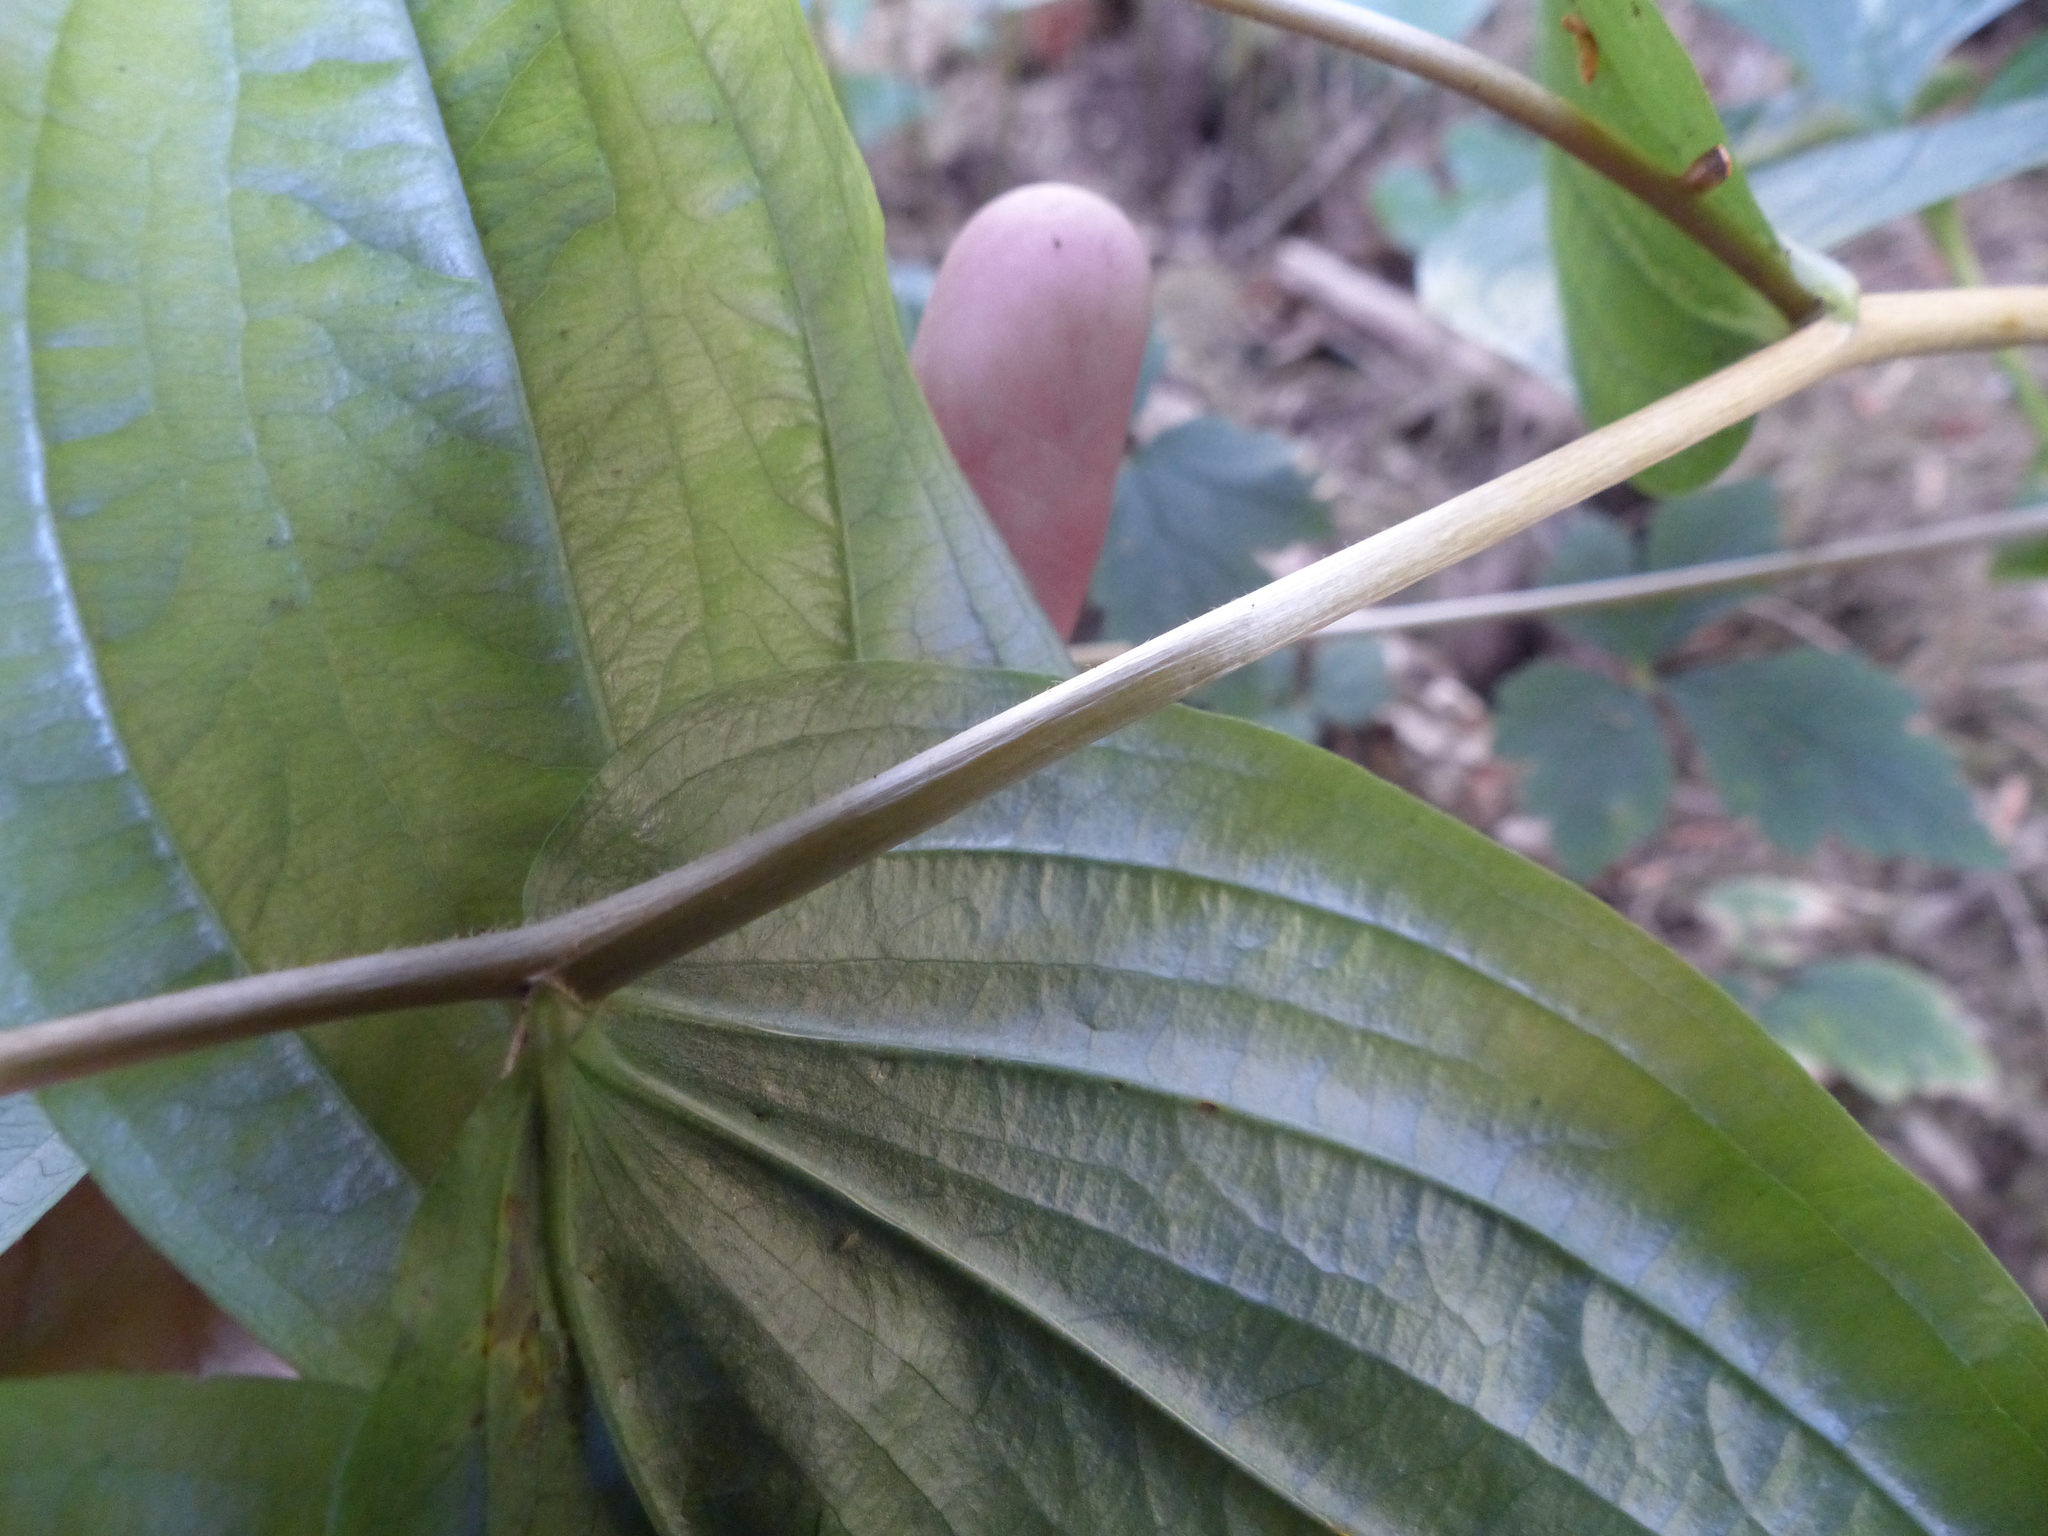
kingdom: Plantae
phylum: Tracheophyta
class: Liliopsida
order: Liliales
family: Liliaceae
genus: Prosartes
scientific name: Prosartes smithii
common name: Fairy-lantern
